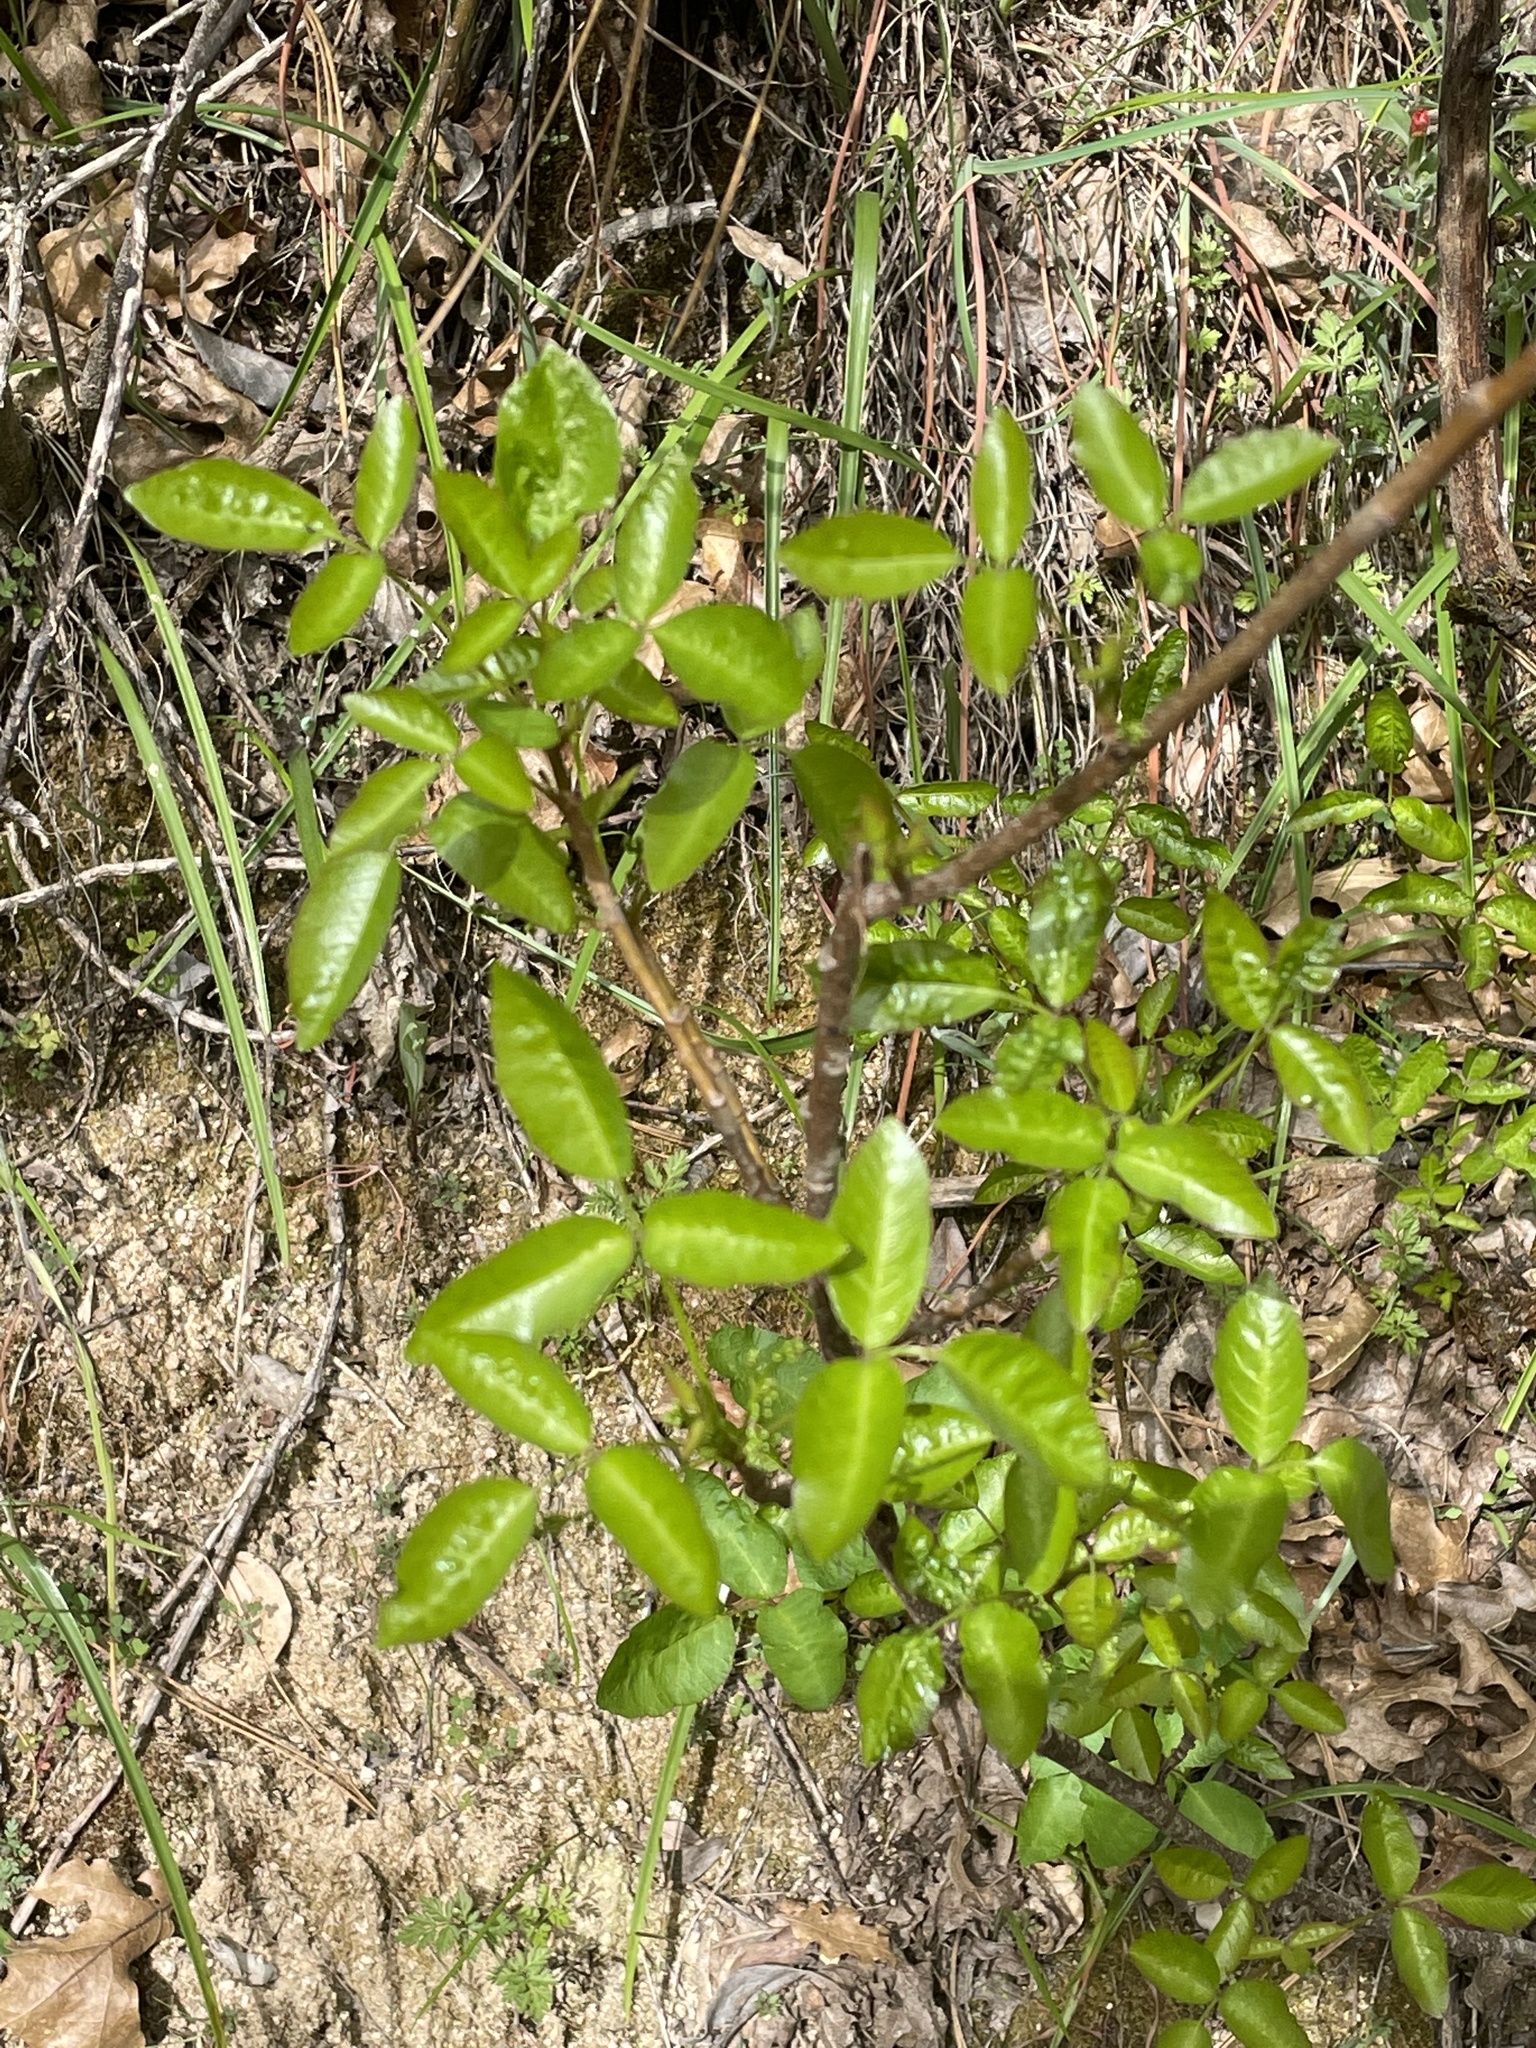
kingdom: Plantae
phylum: Tracheophyta
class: Magnoliopsida
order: Sapindales
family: Anacardiaceae
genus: Toxicodendron
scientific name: Toxicodendron diversilobum
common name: Pacific poison-oak
